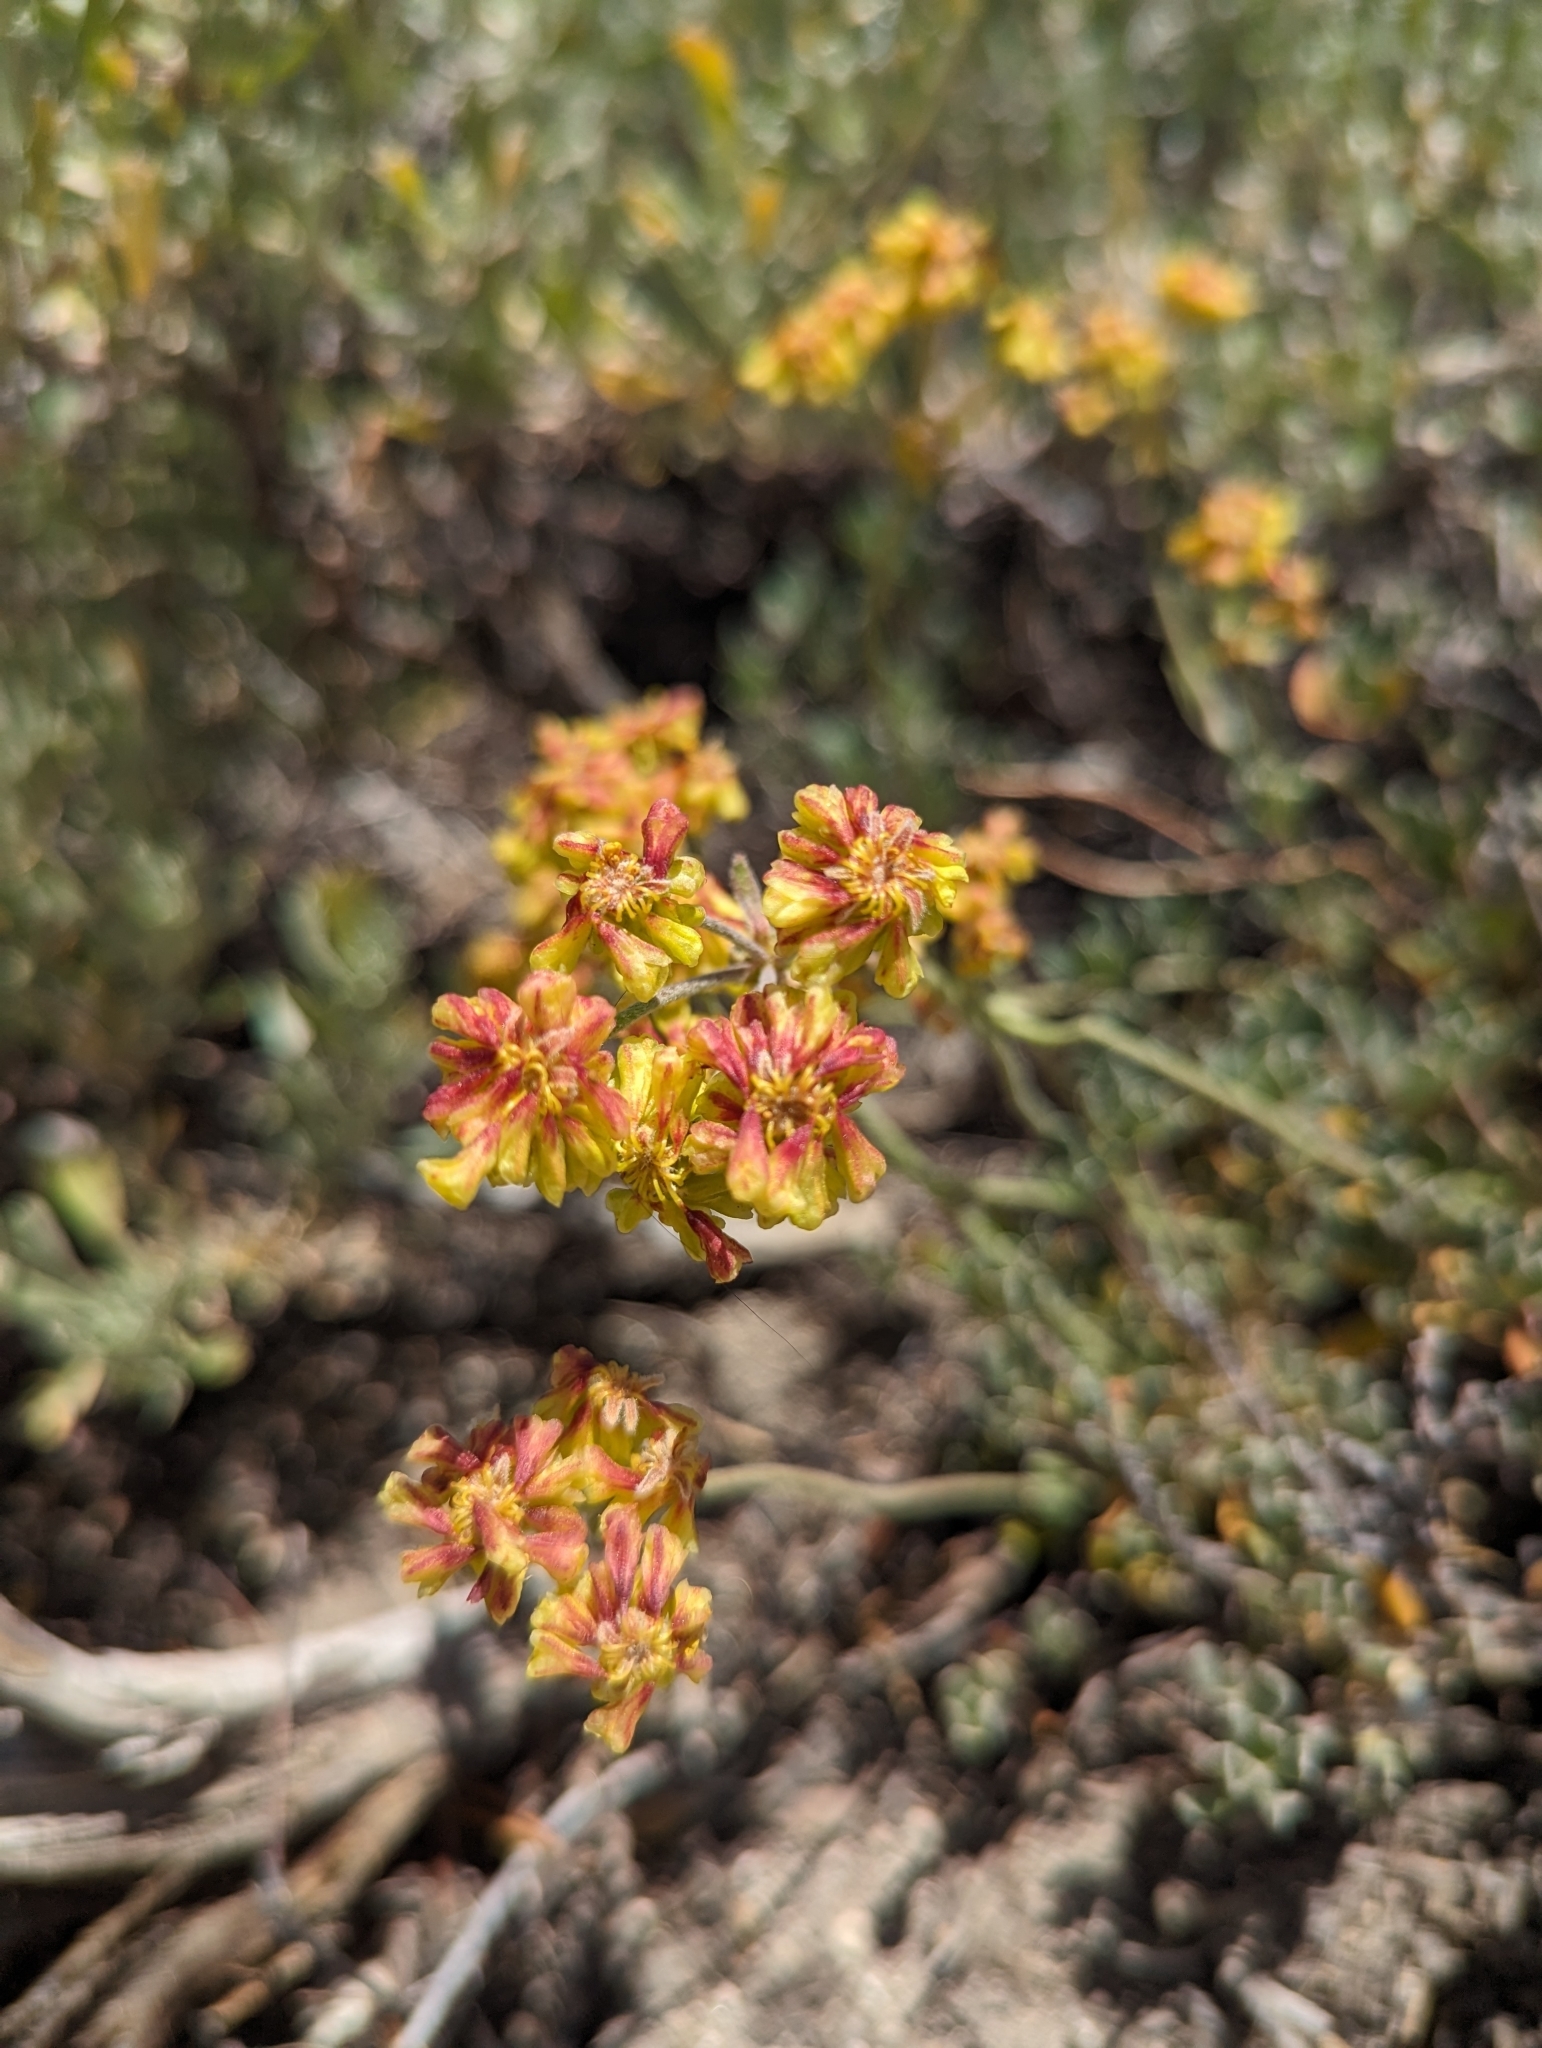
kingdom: Plantae
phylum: Tracheophyta
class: Magnoliopsida
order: Caryophyllales
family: Polygonaceae
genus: Eriogonum
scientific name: Eriogonum umbellatum
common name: Sulfur-buckwheat
